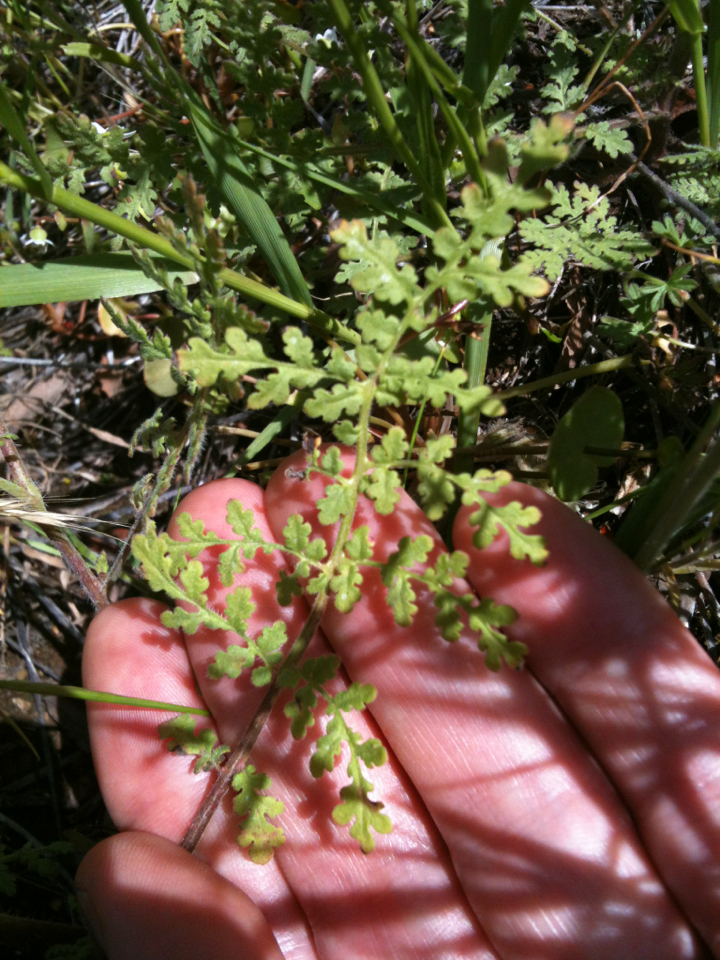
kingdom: Plantae
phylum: Tracheophyta
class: Magnoliopsida
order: Boraginales
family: Hydrophyllaceae
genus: Phacelia
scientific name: Phacelia distans
